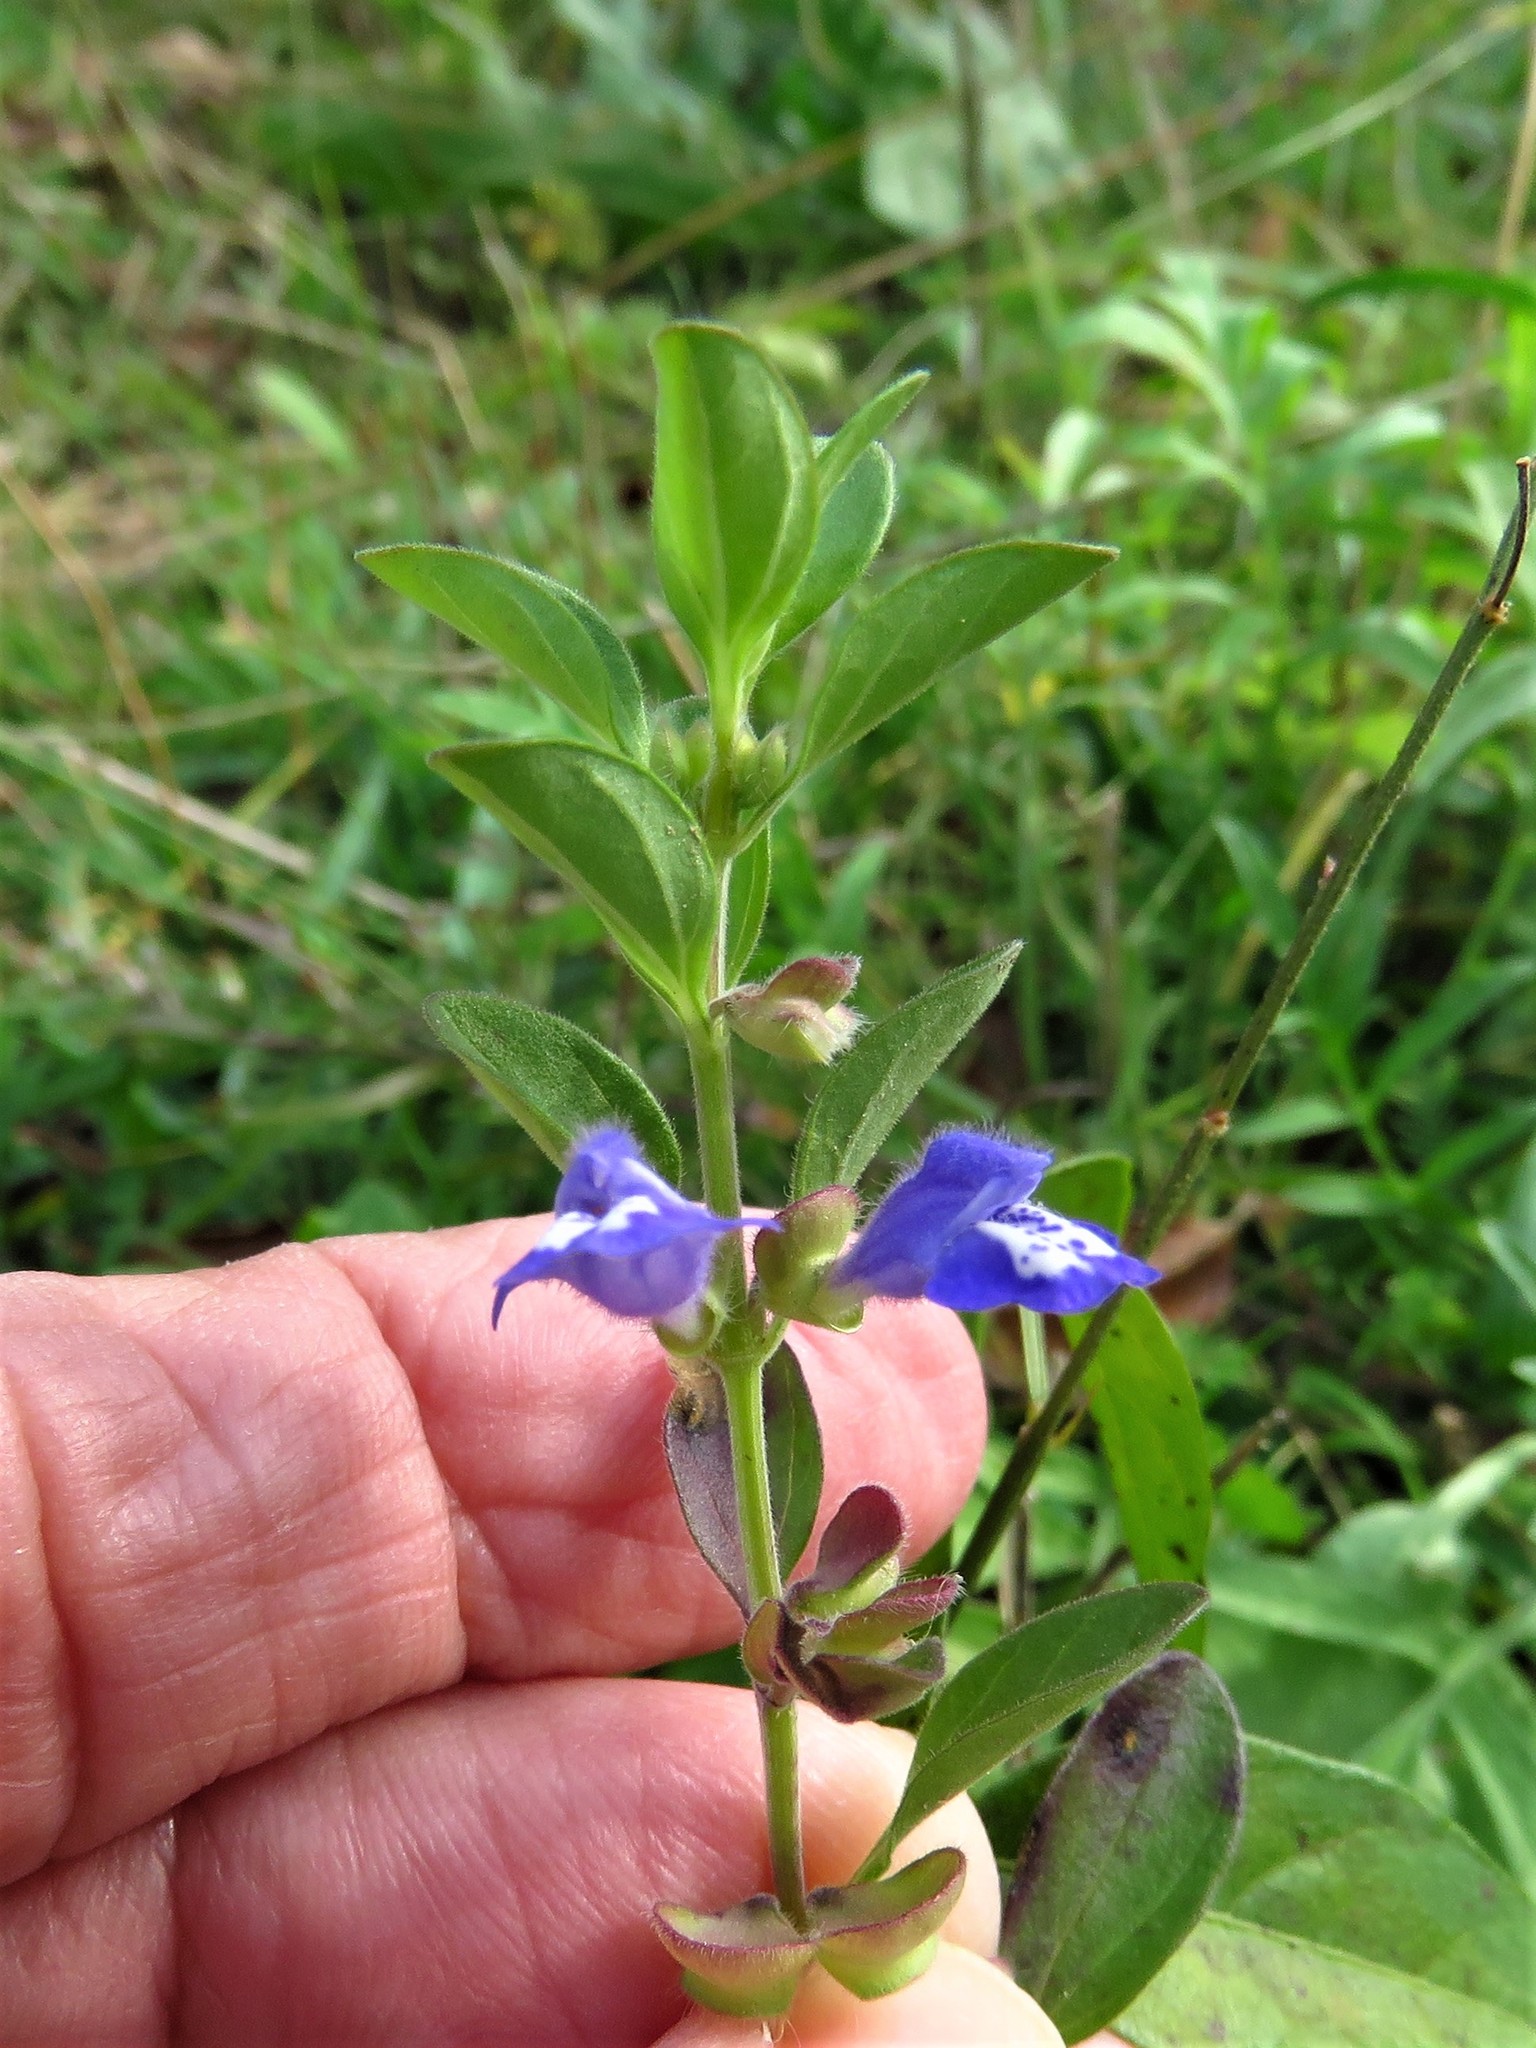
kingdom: Plantae
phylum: Tracheophyta
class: Magnoliopsida
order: Lamiales
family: Lamiaceae
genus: Scutellaria
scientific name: Scutellaria drummondii
